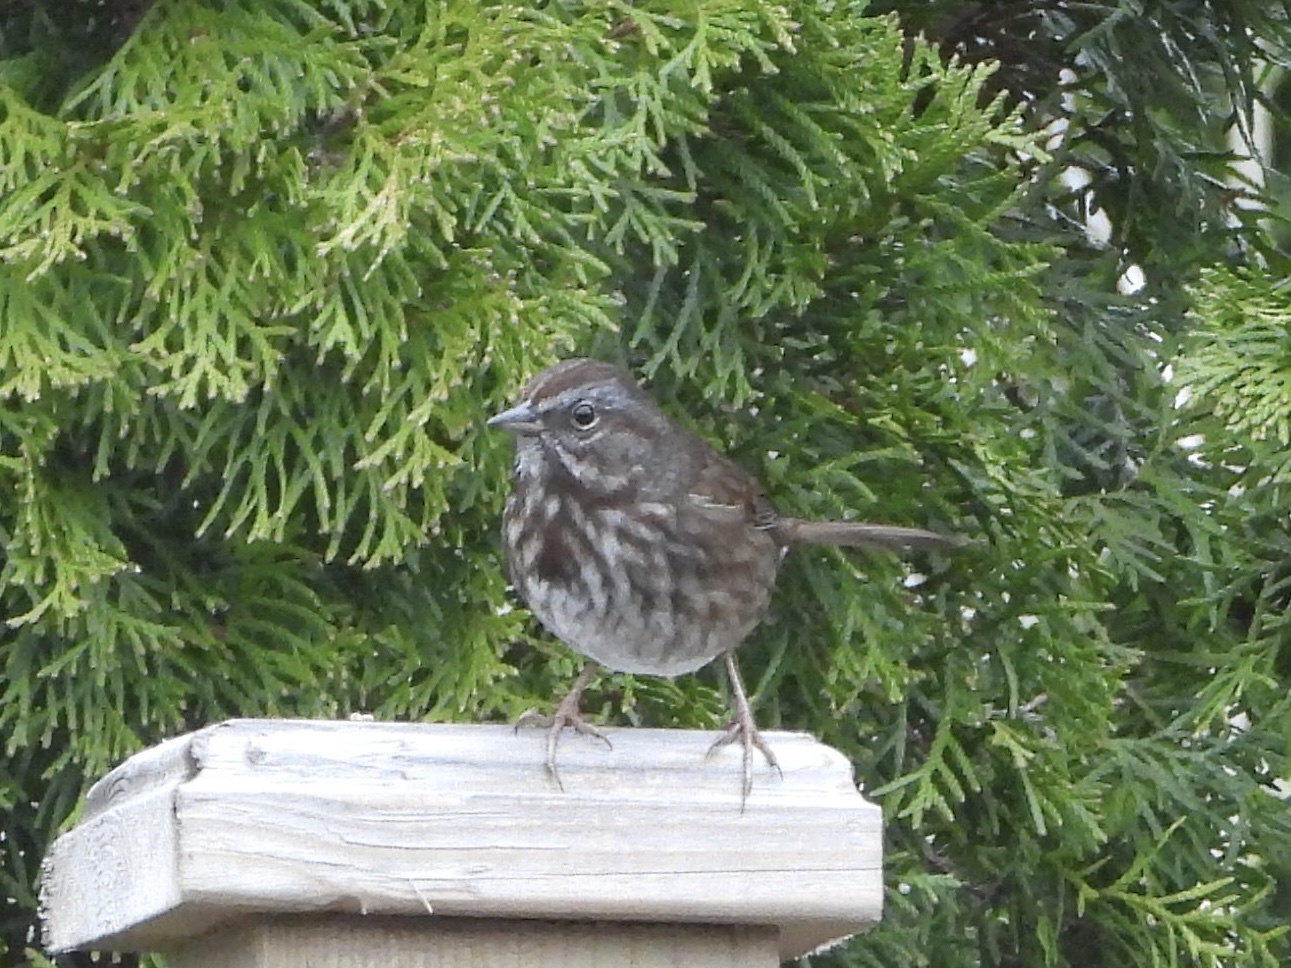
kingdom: Animalia
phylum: Chordata
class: Aves
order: Passeriformes
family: Passerellidae
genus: Melospiza
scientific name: Melospiza melodia
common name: Song sparrow
